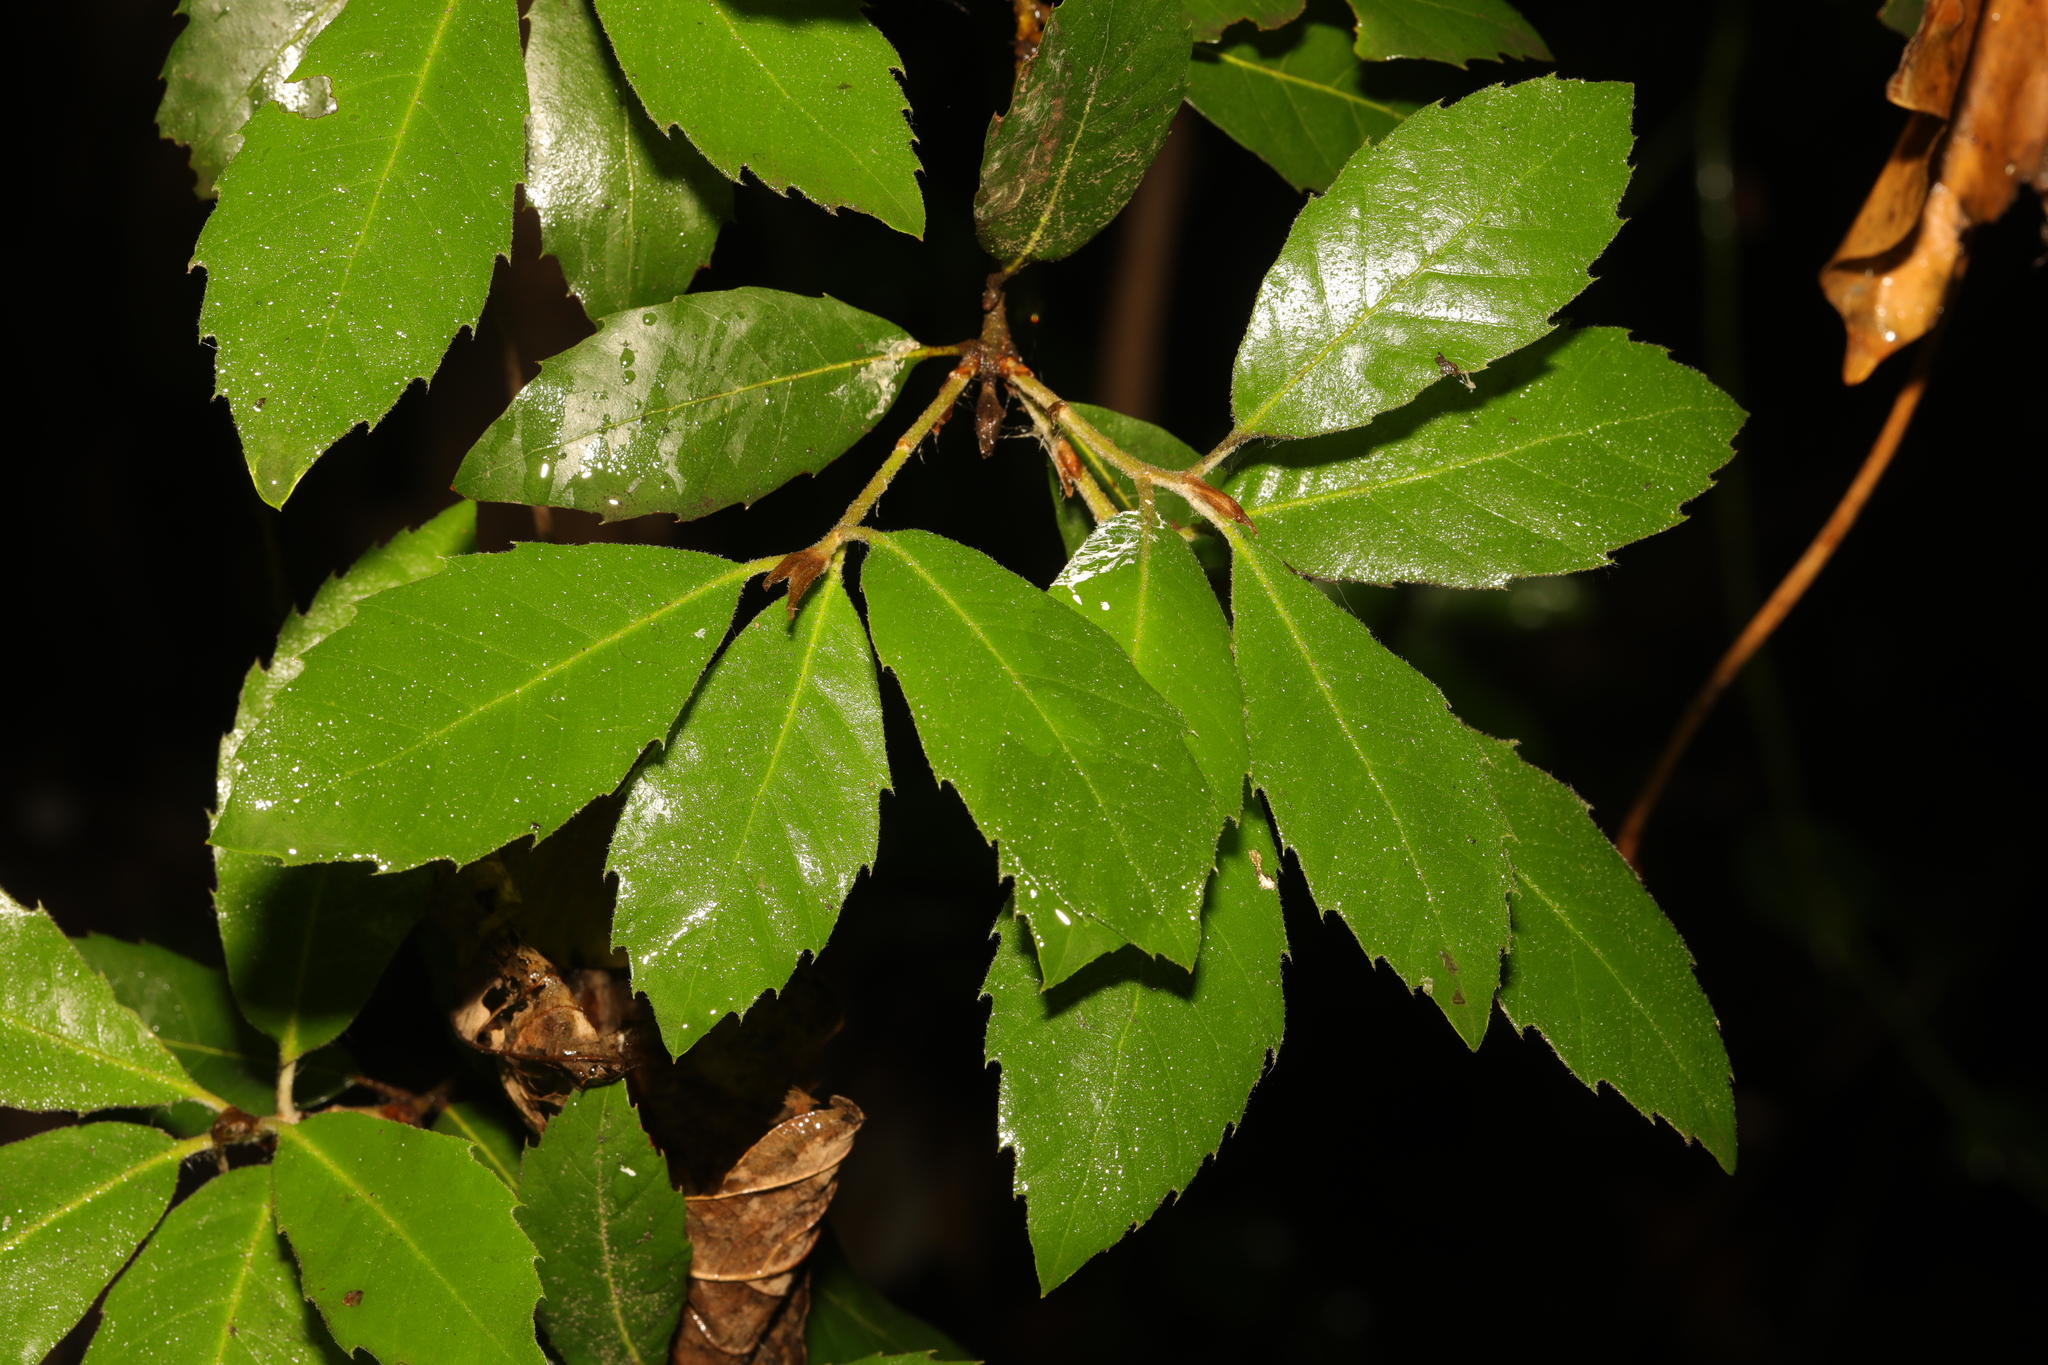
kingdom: Plantae
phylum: Tracheophyta
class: Magnoliopsida
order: Fagales
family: Fagaceae
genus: Quercus
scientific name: Quercus ilex
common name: Evergreen oak
